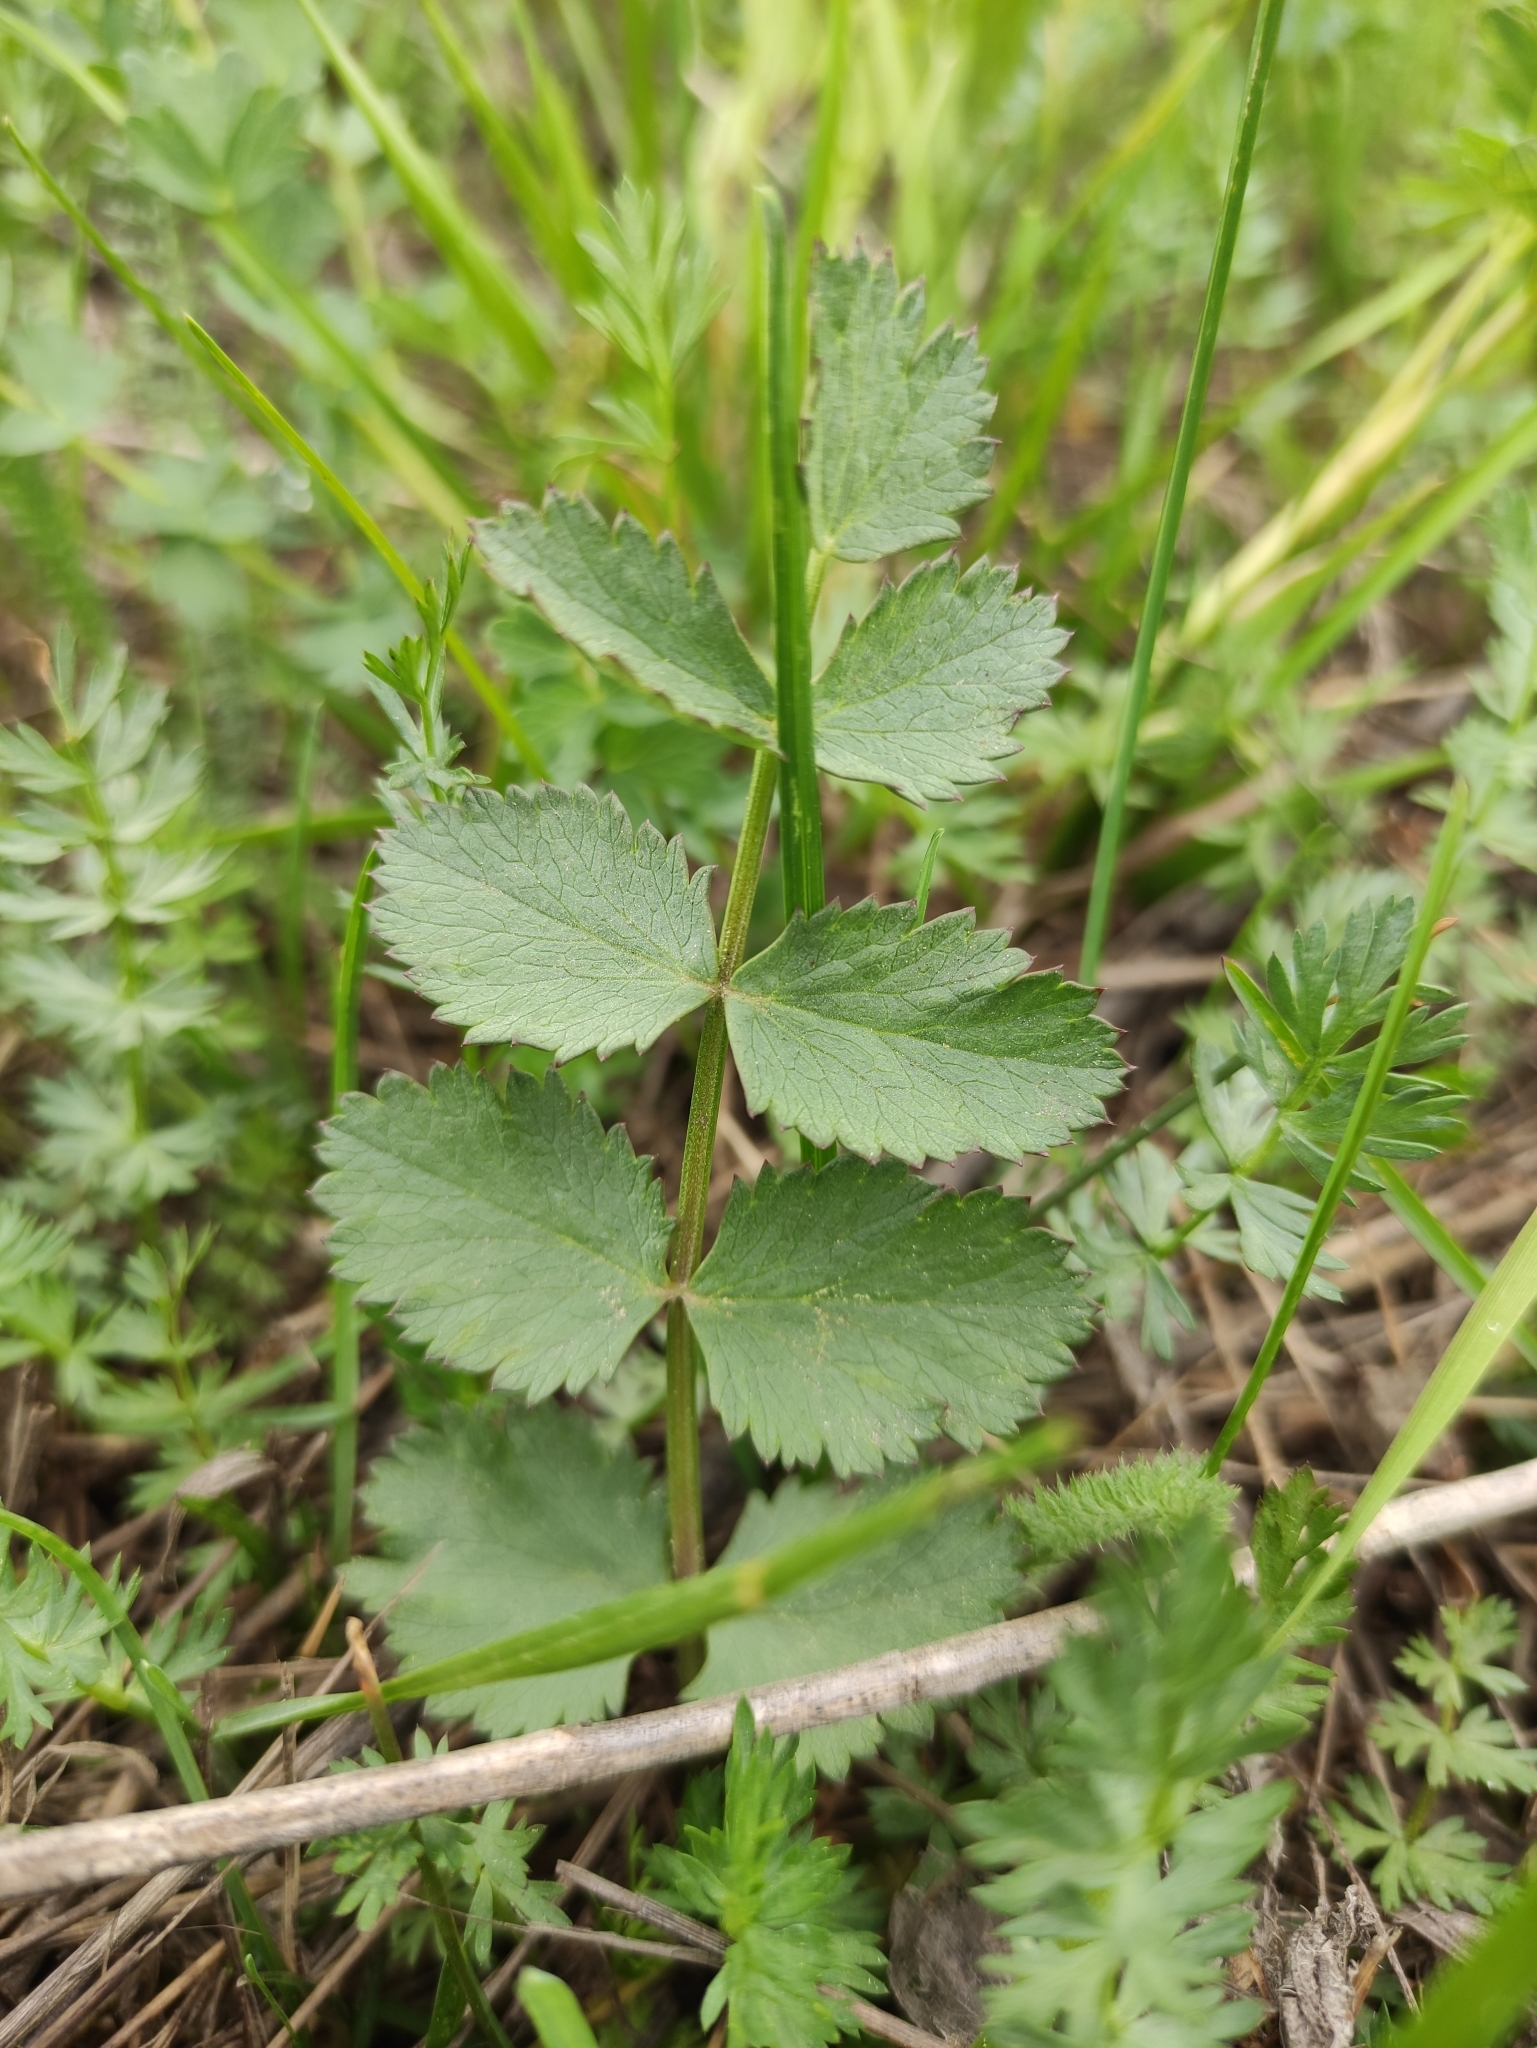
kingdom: Plantae
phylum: Tracheophyta
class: Magnoliopsida
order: Apiales
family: Apiaceae
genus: Pimpinella
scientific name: Pimpinella saxifraga
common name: Burnet-saxifrage
